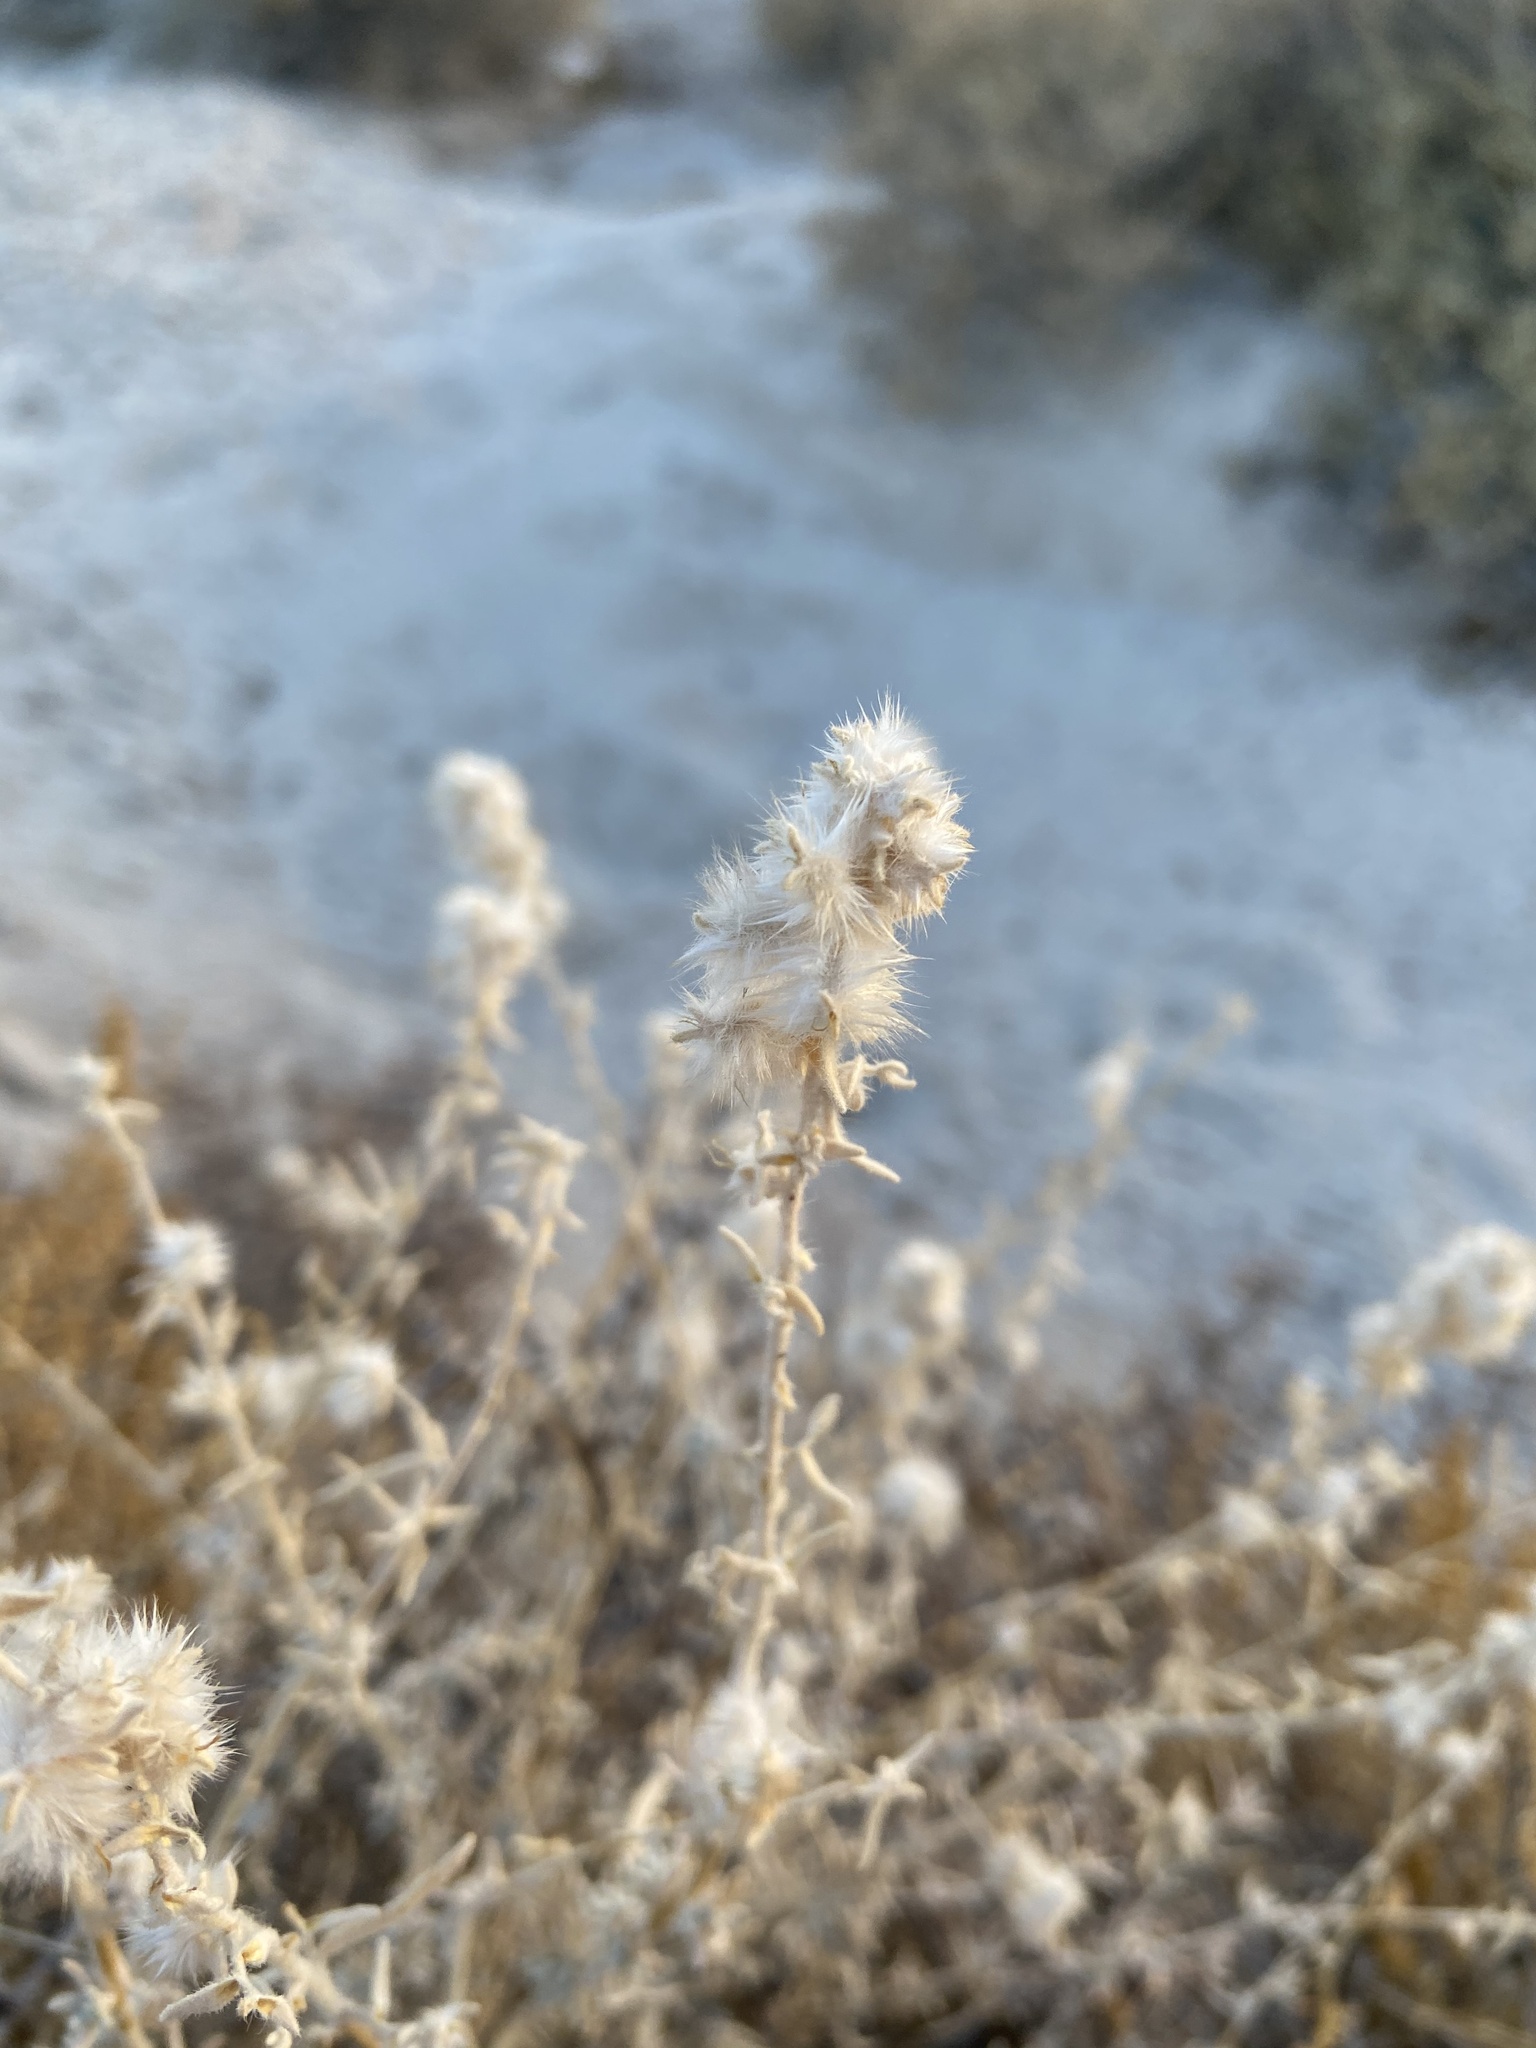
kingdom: Plantae
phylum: Tracheophyta
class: Magnoliopsida
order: Caryophyllales
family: Amaranthaceae
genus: Krascheninnikovia
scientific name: Krascheninnikovia lanata
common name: Winterfat
